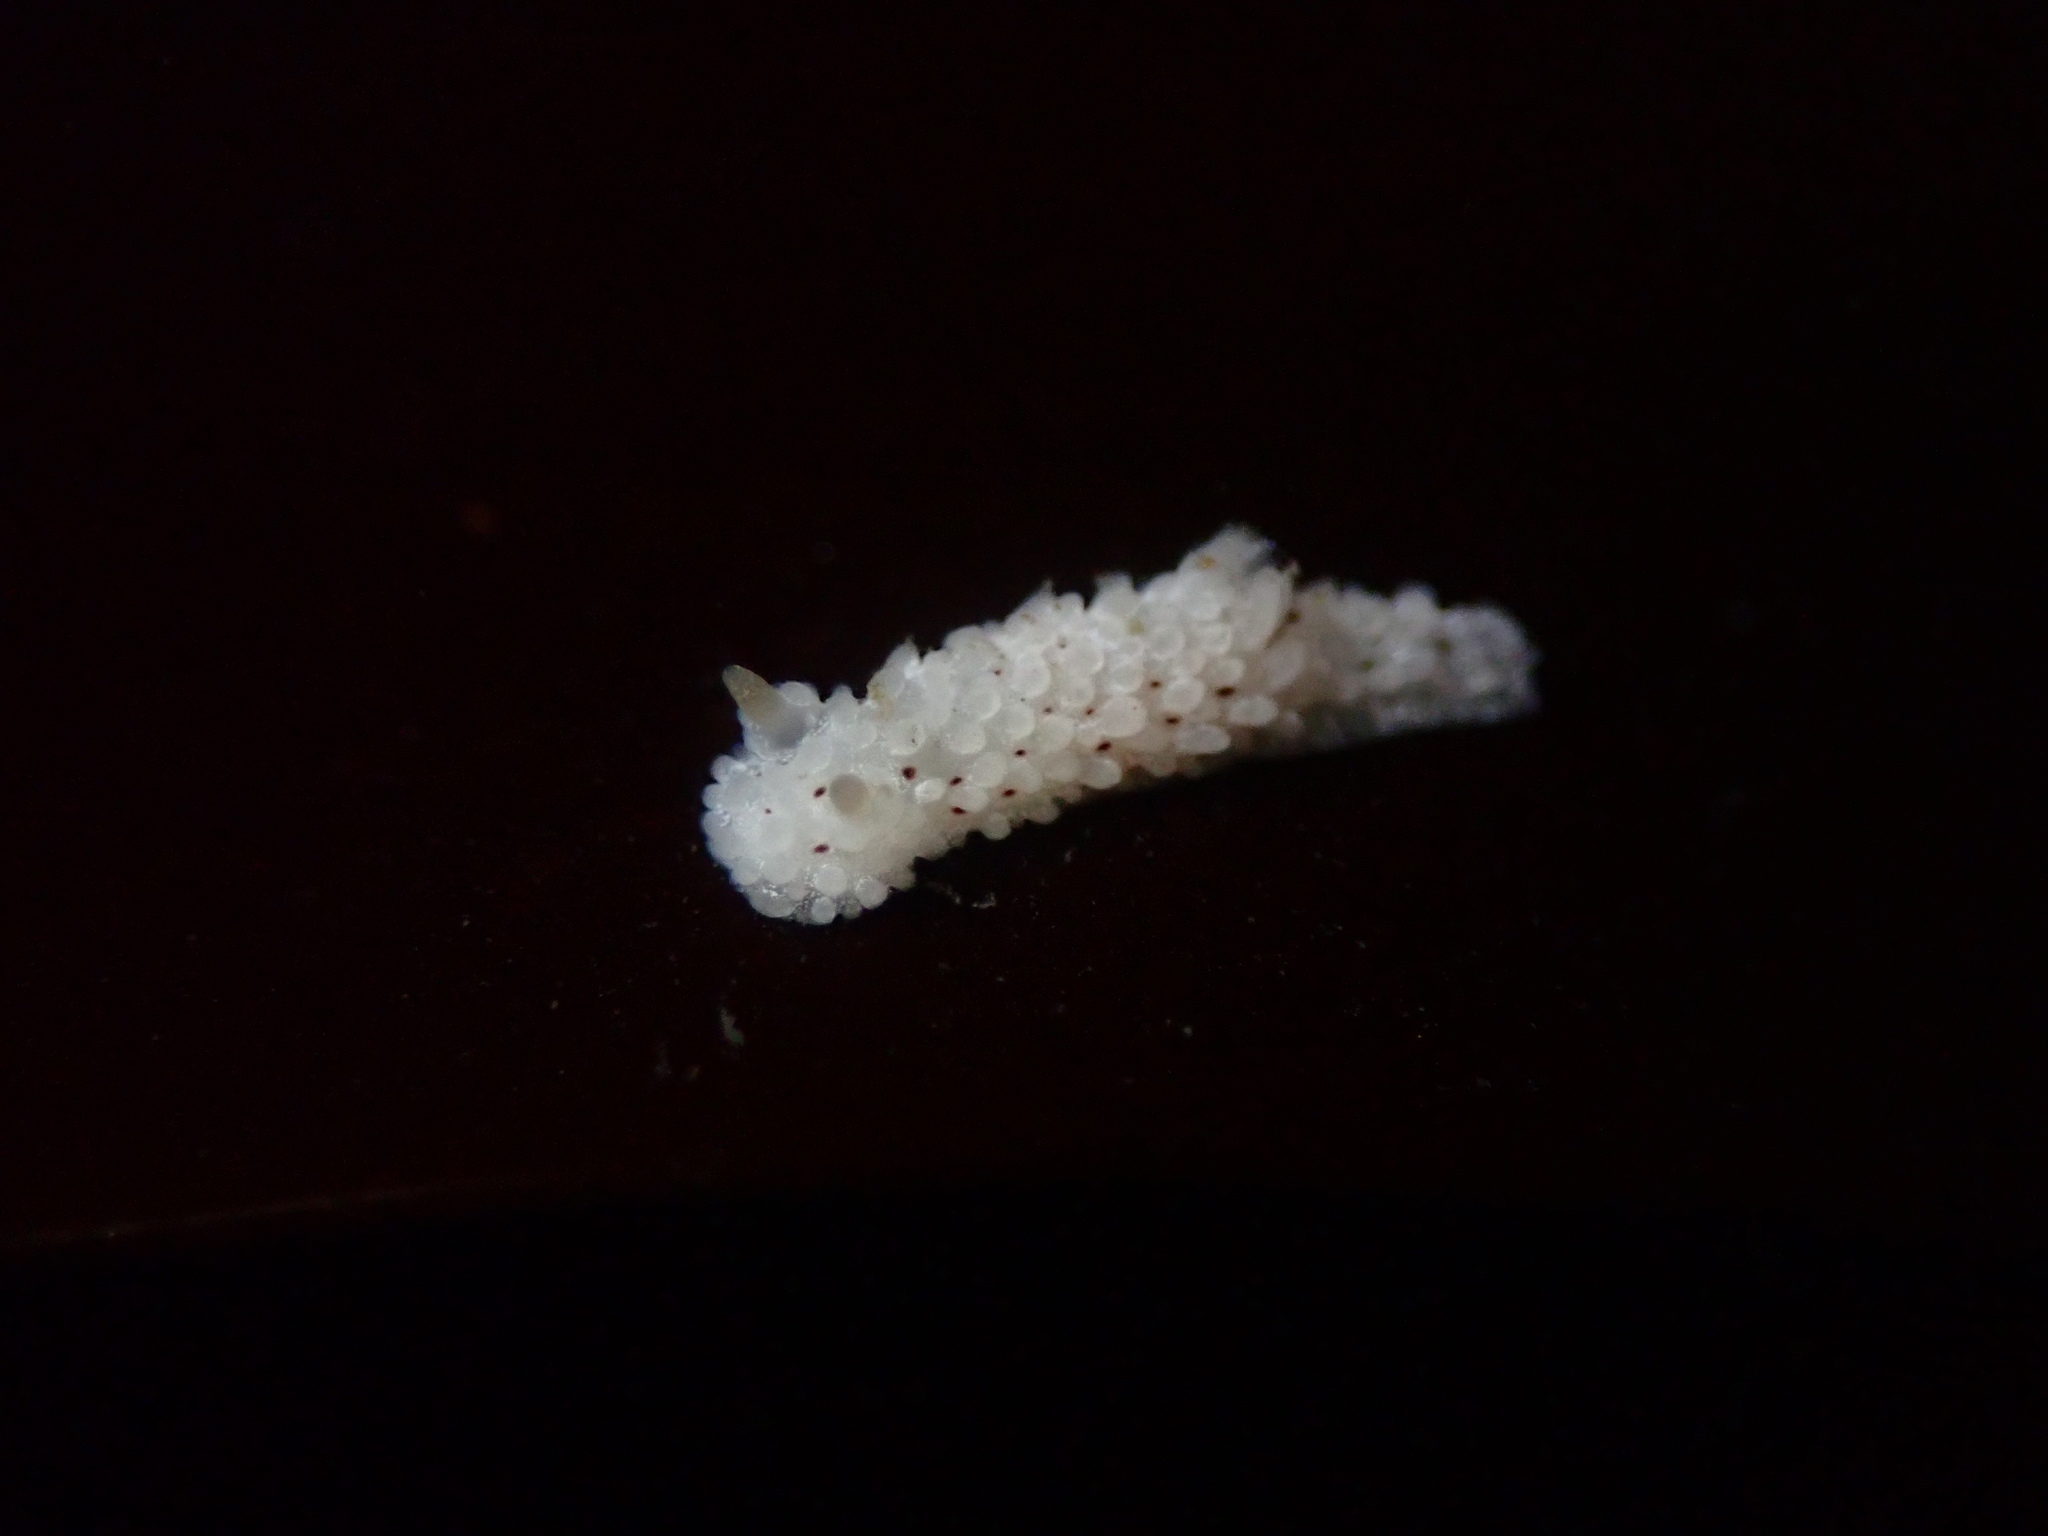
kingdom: Animalia
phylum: Mollusca
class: Gastropoda
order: Nudibranchia
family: Aegiridae
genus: Aegires
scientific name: Aegires albopunctatus
